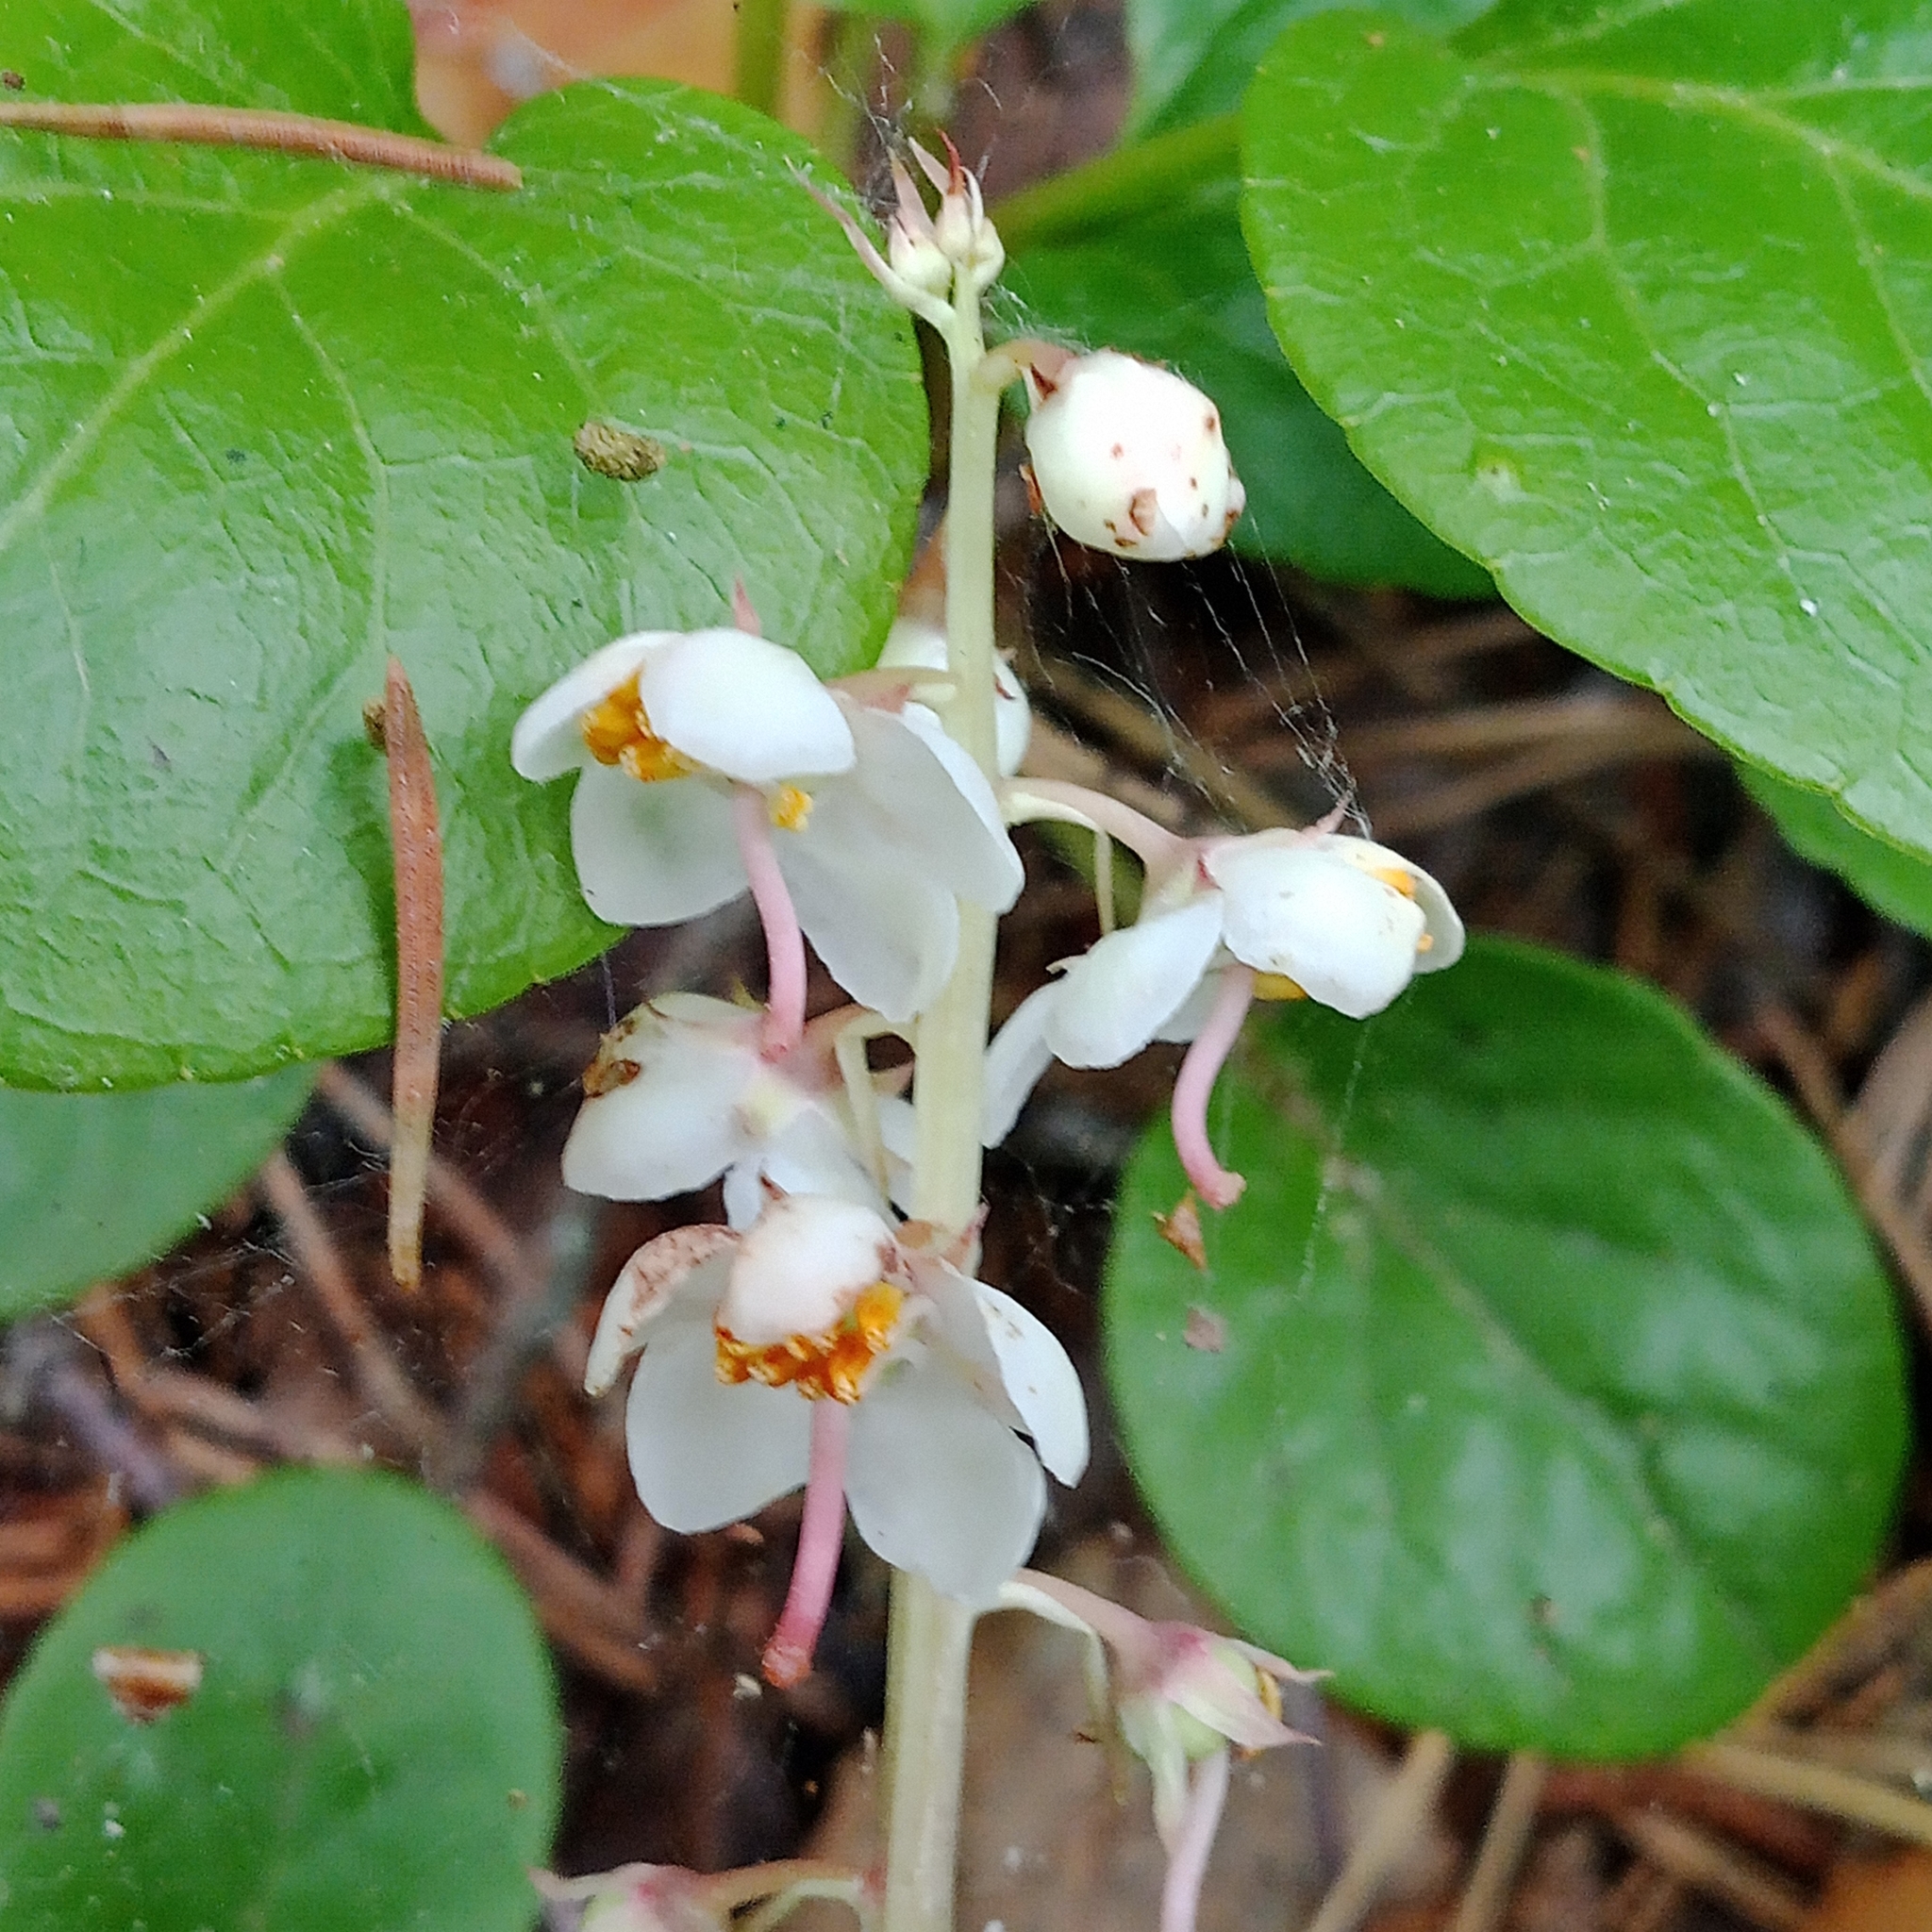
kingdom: Plantae
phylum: Tracheophyta
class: Magnoliopsida
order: Ericales
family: Ericaceae
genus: Pyrola
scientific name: Pyrola rotundifolia
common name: Round-leaved wintergreen
